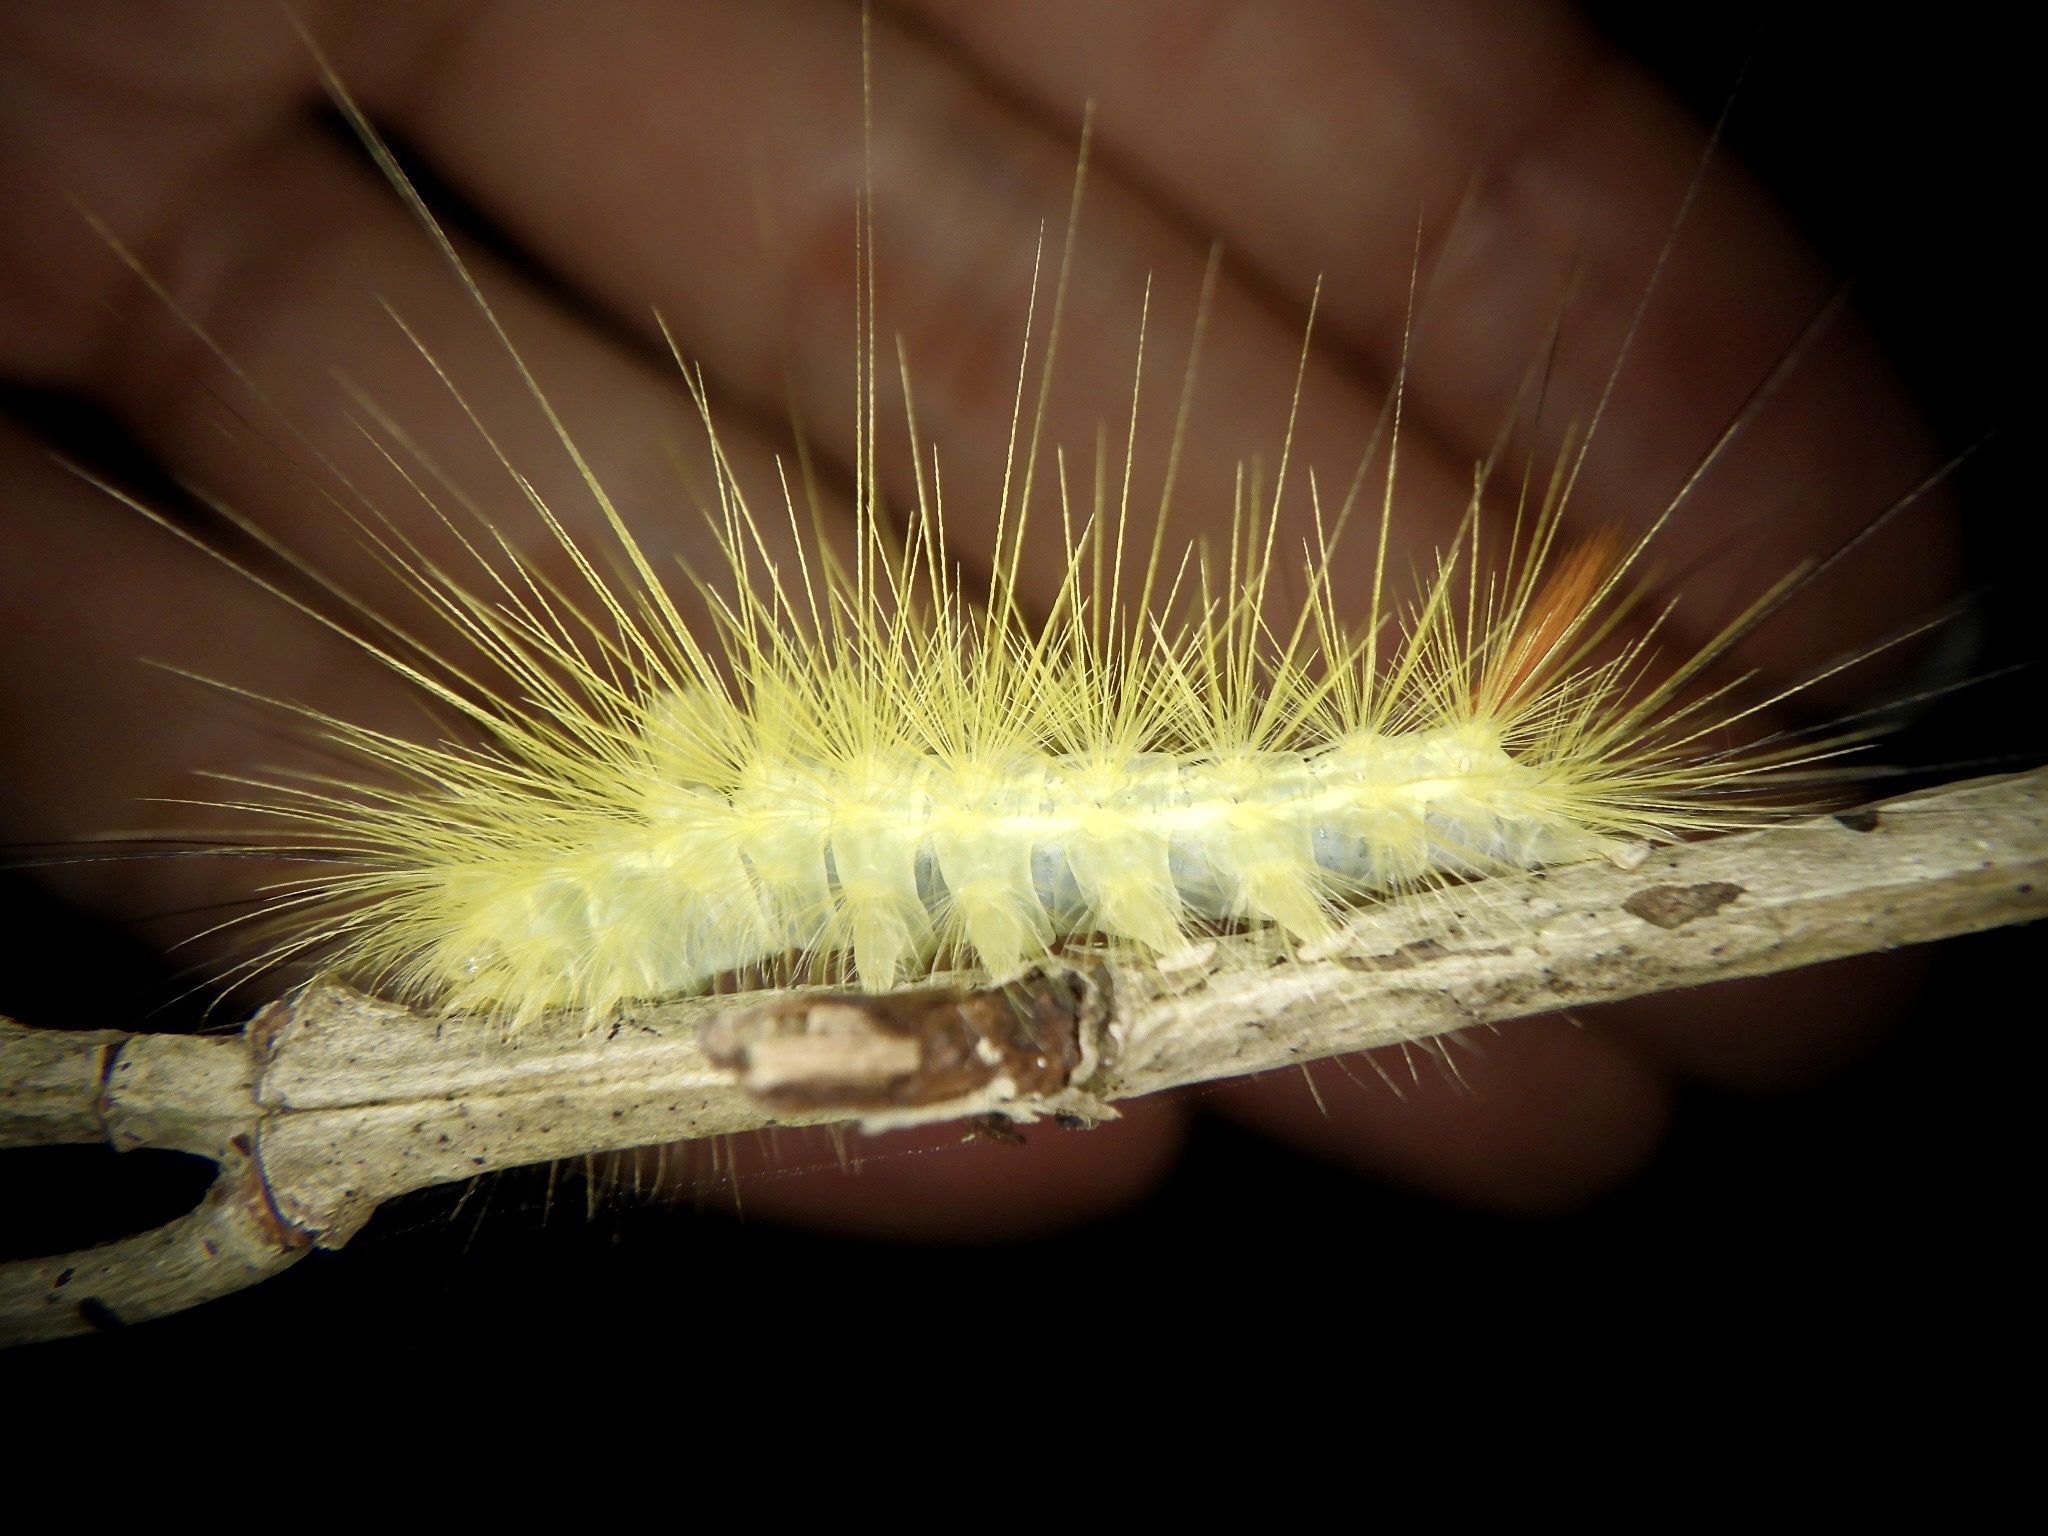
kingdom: Animalia
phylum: Arthropoda
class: Insecta
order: Lepidoptera
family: Erebidae
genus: Calliteara
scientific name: Calliteara
